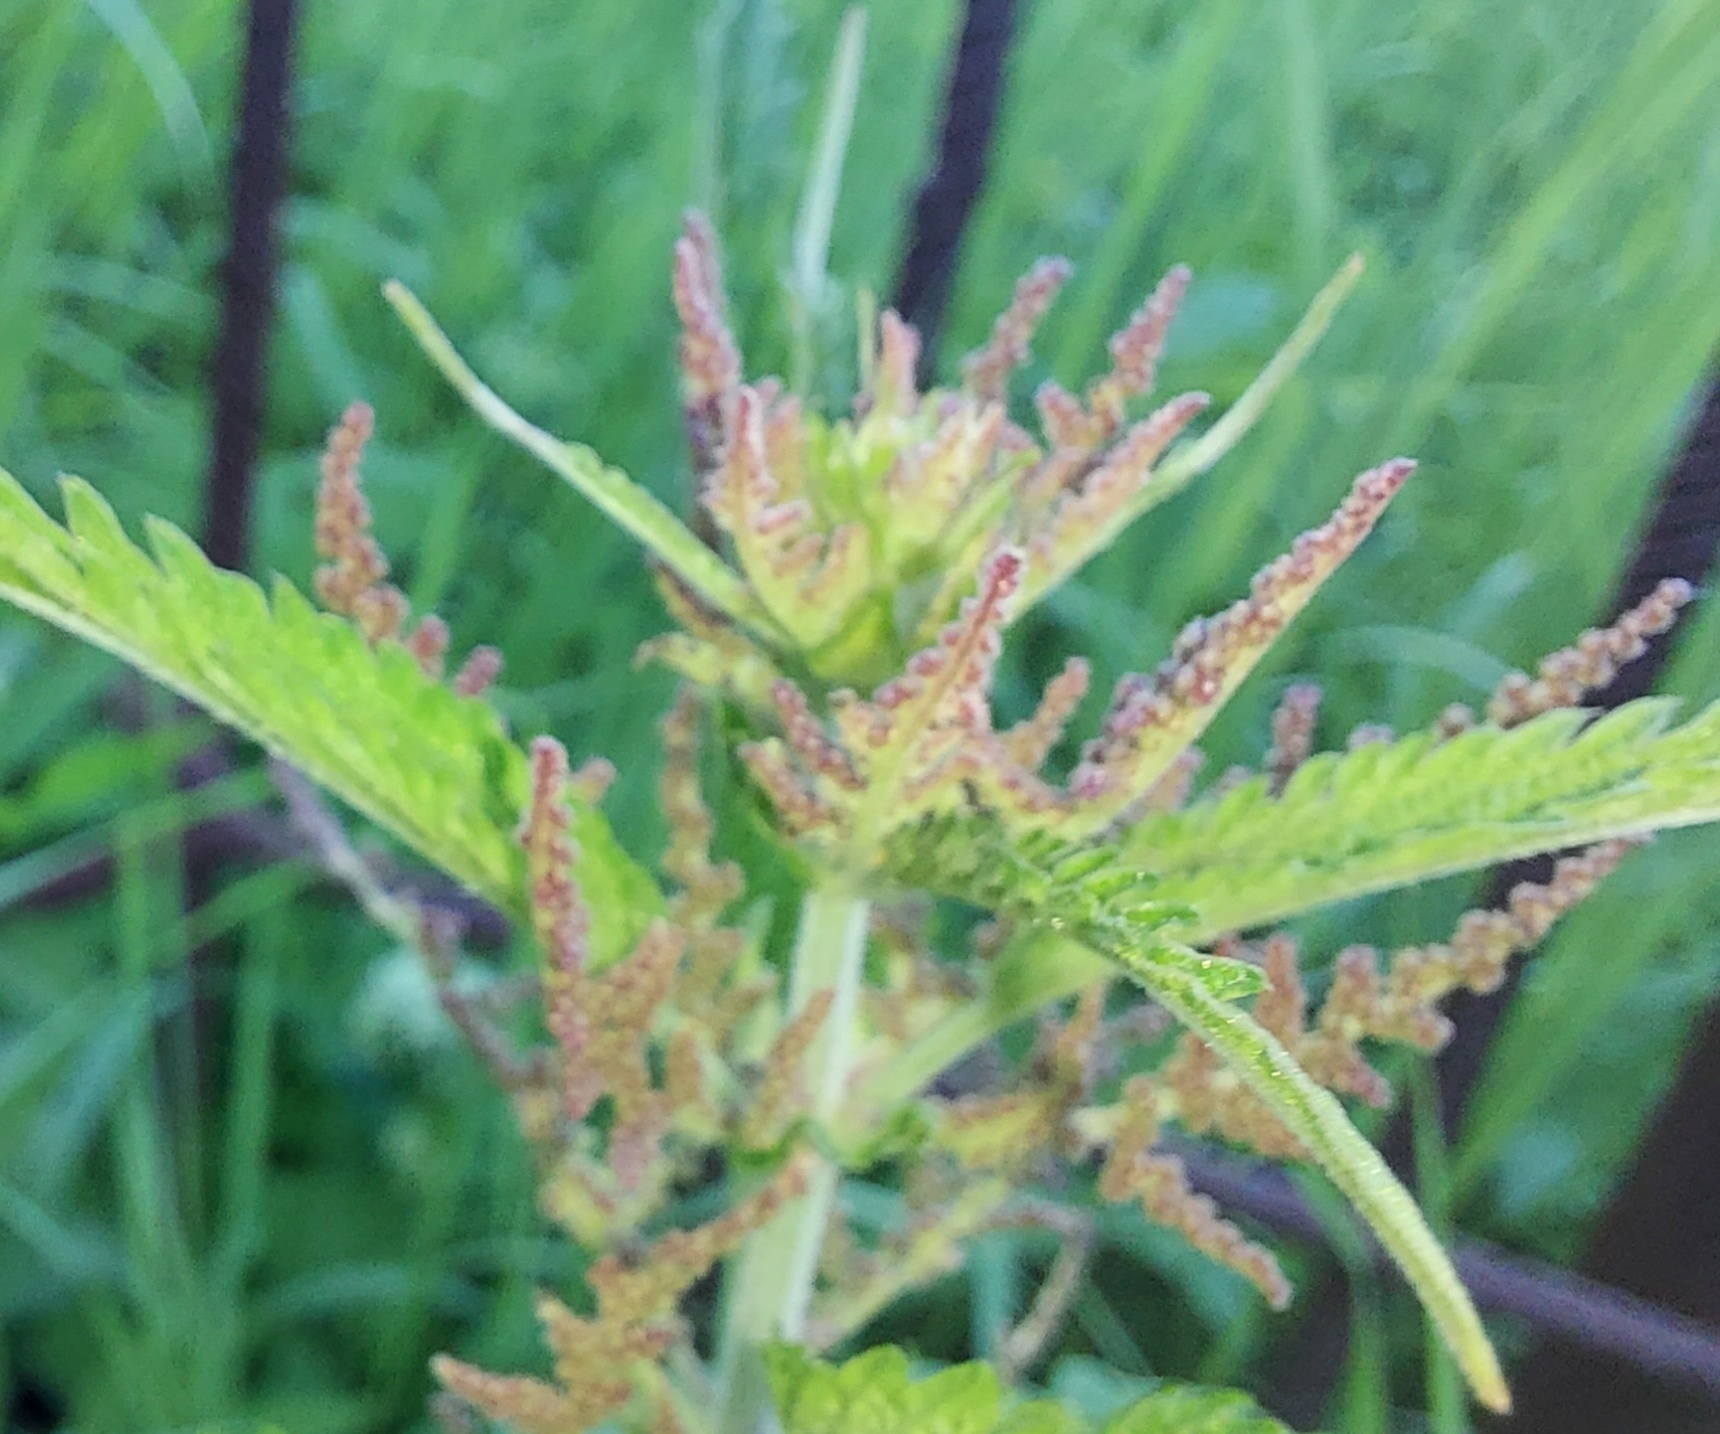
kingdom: Plantae
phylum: Tracheophyta
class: Magnoliopsida
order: Rosales
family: Urticaceae
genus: Urtica
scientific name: Urtica dioica
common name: Common nettle
